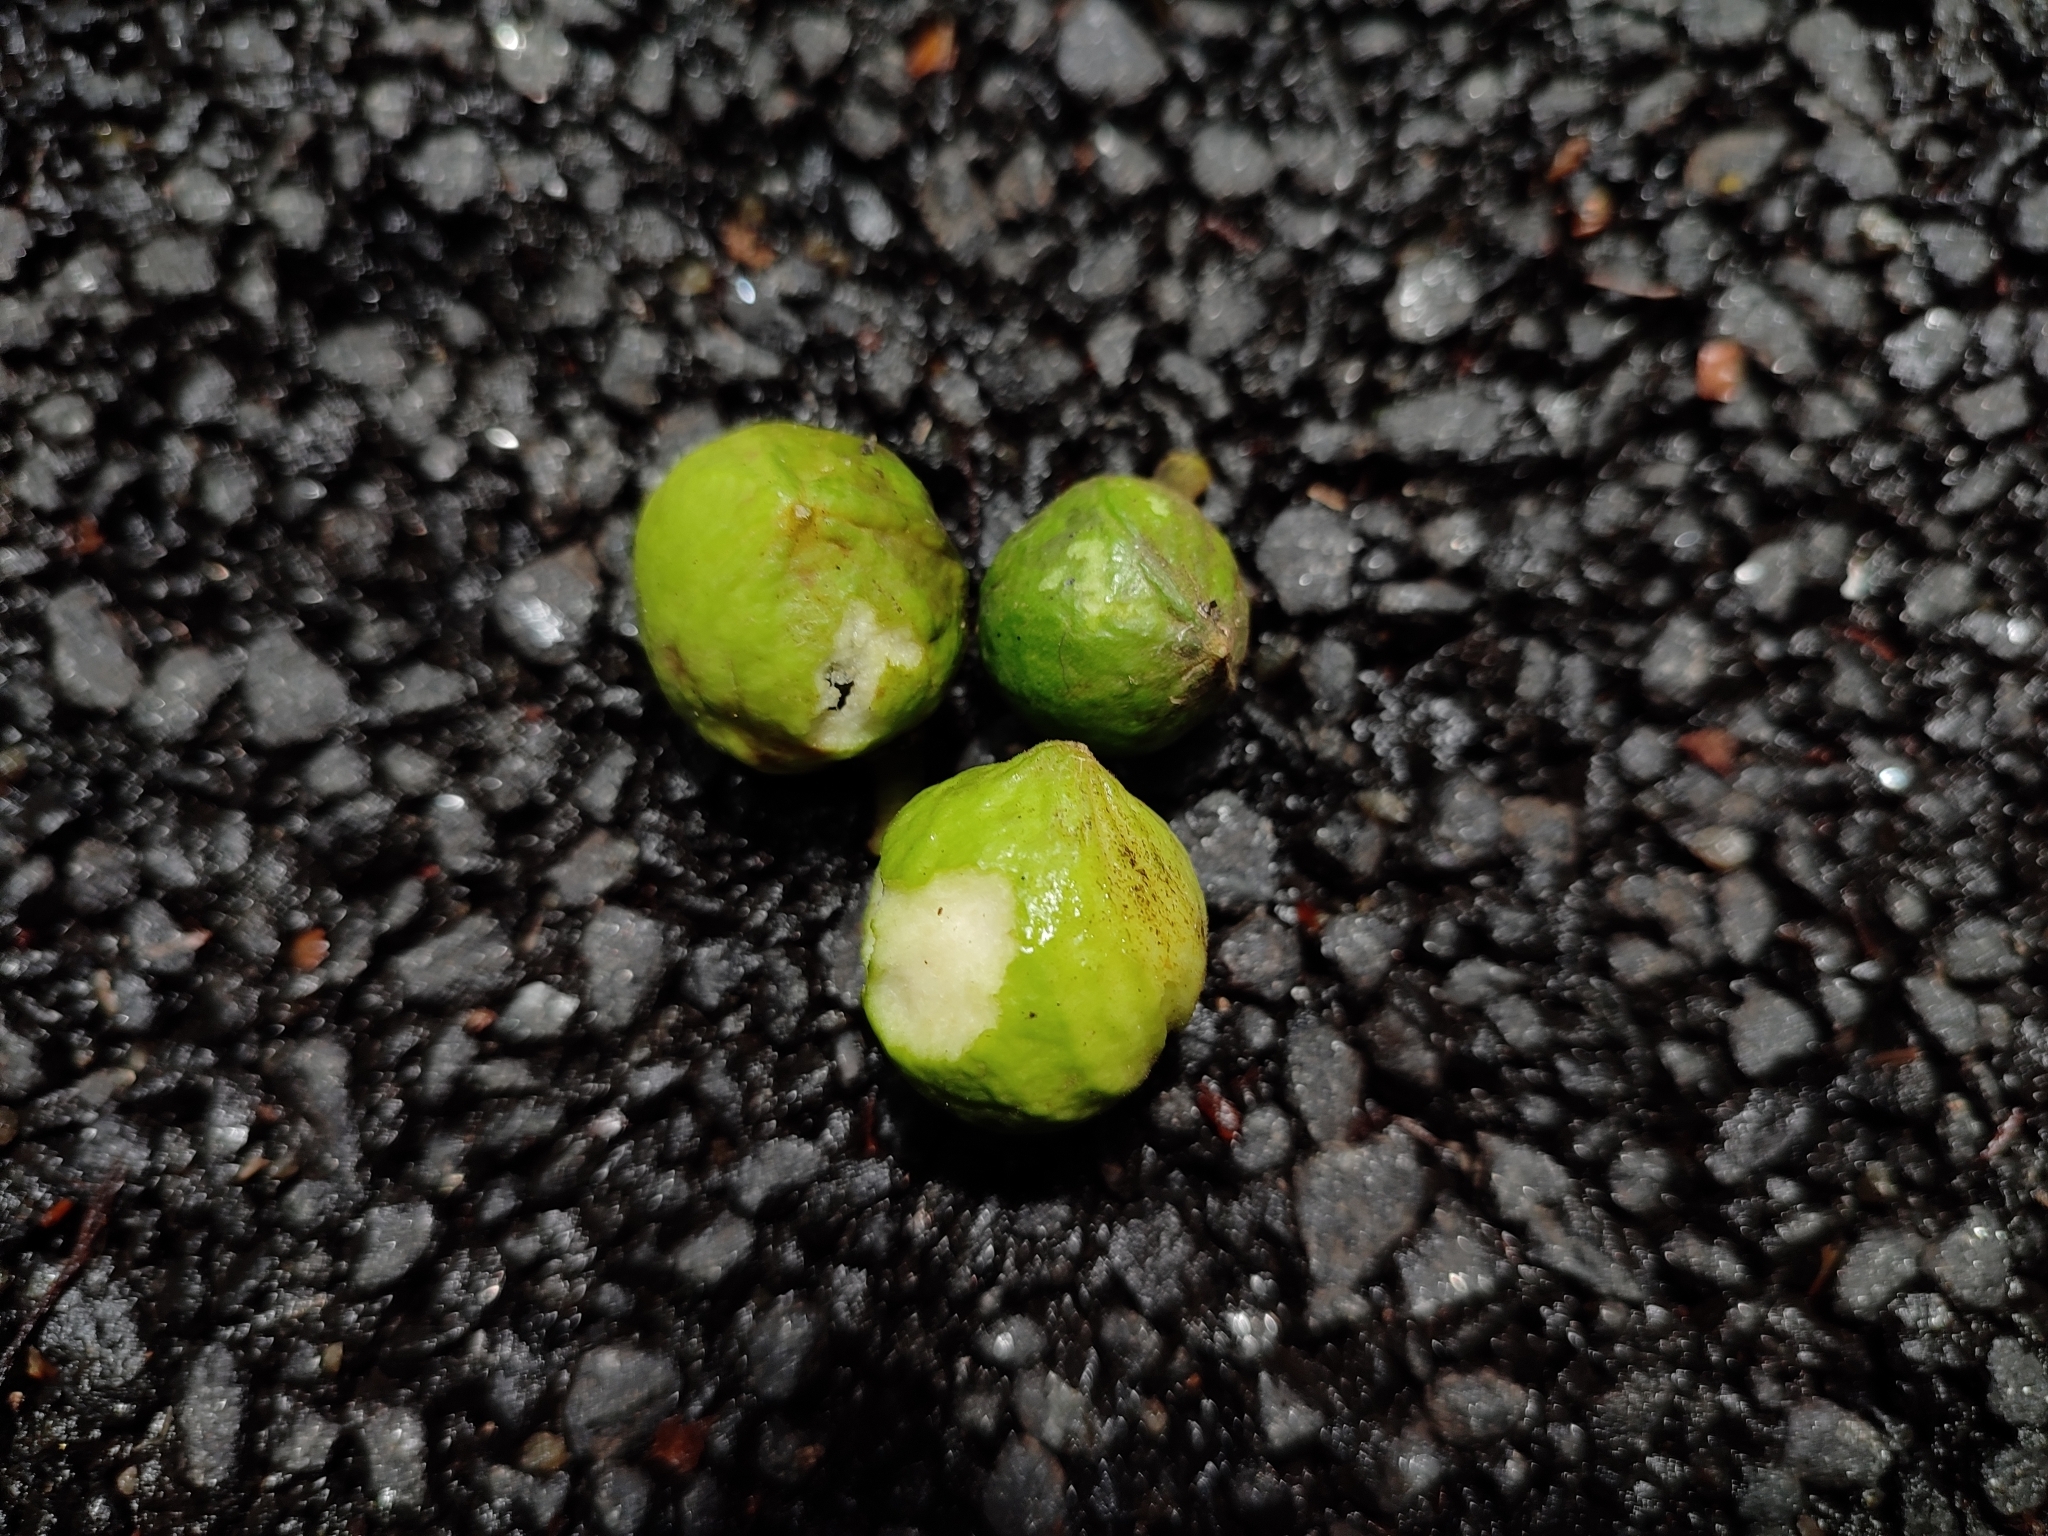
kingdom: Plantae
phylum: Tracheophyta
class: Magnoliopsida
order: Fabales
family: Polygalaceae
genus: Xanthophyllum
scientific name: Xanthophyllum flavescens
